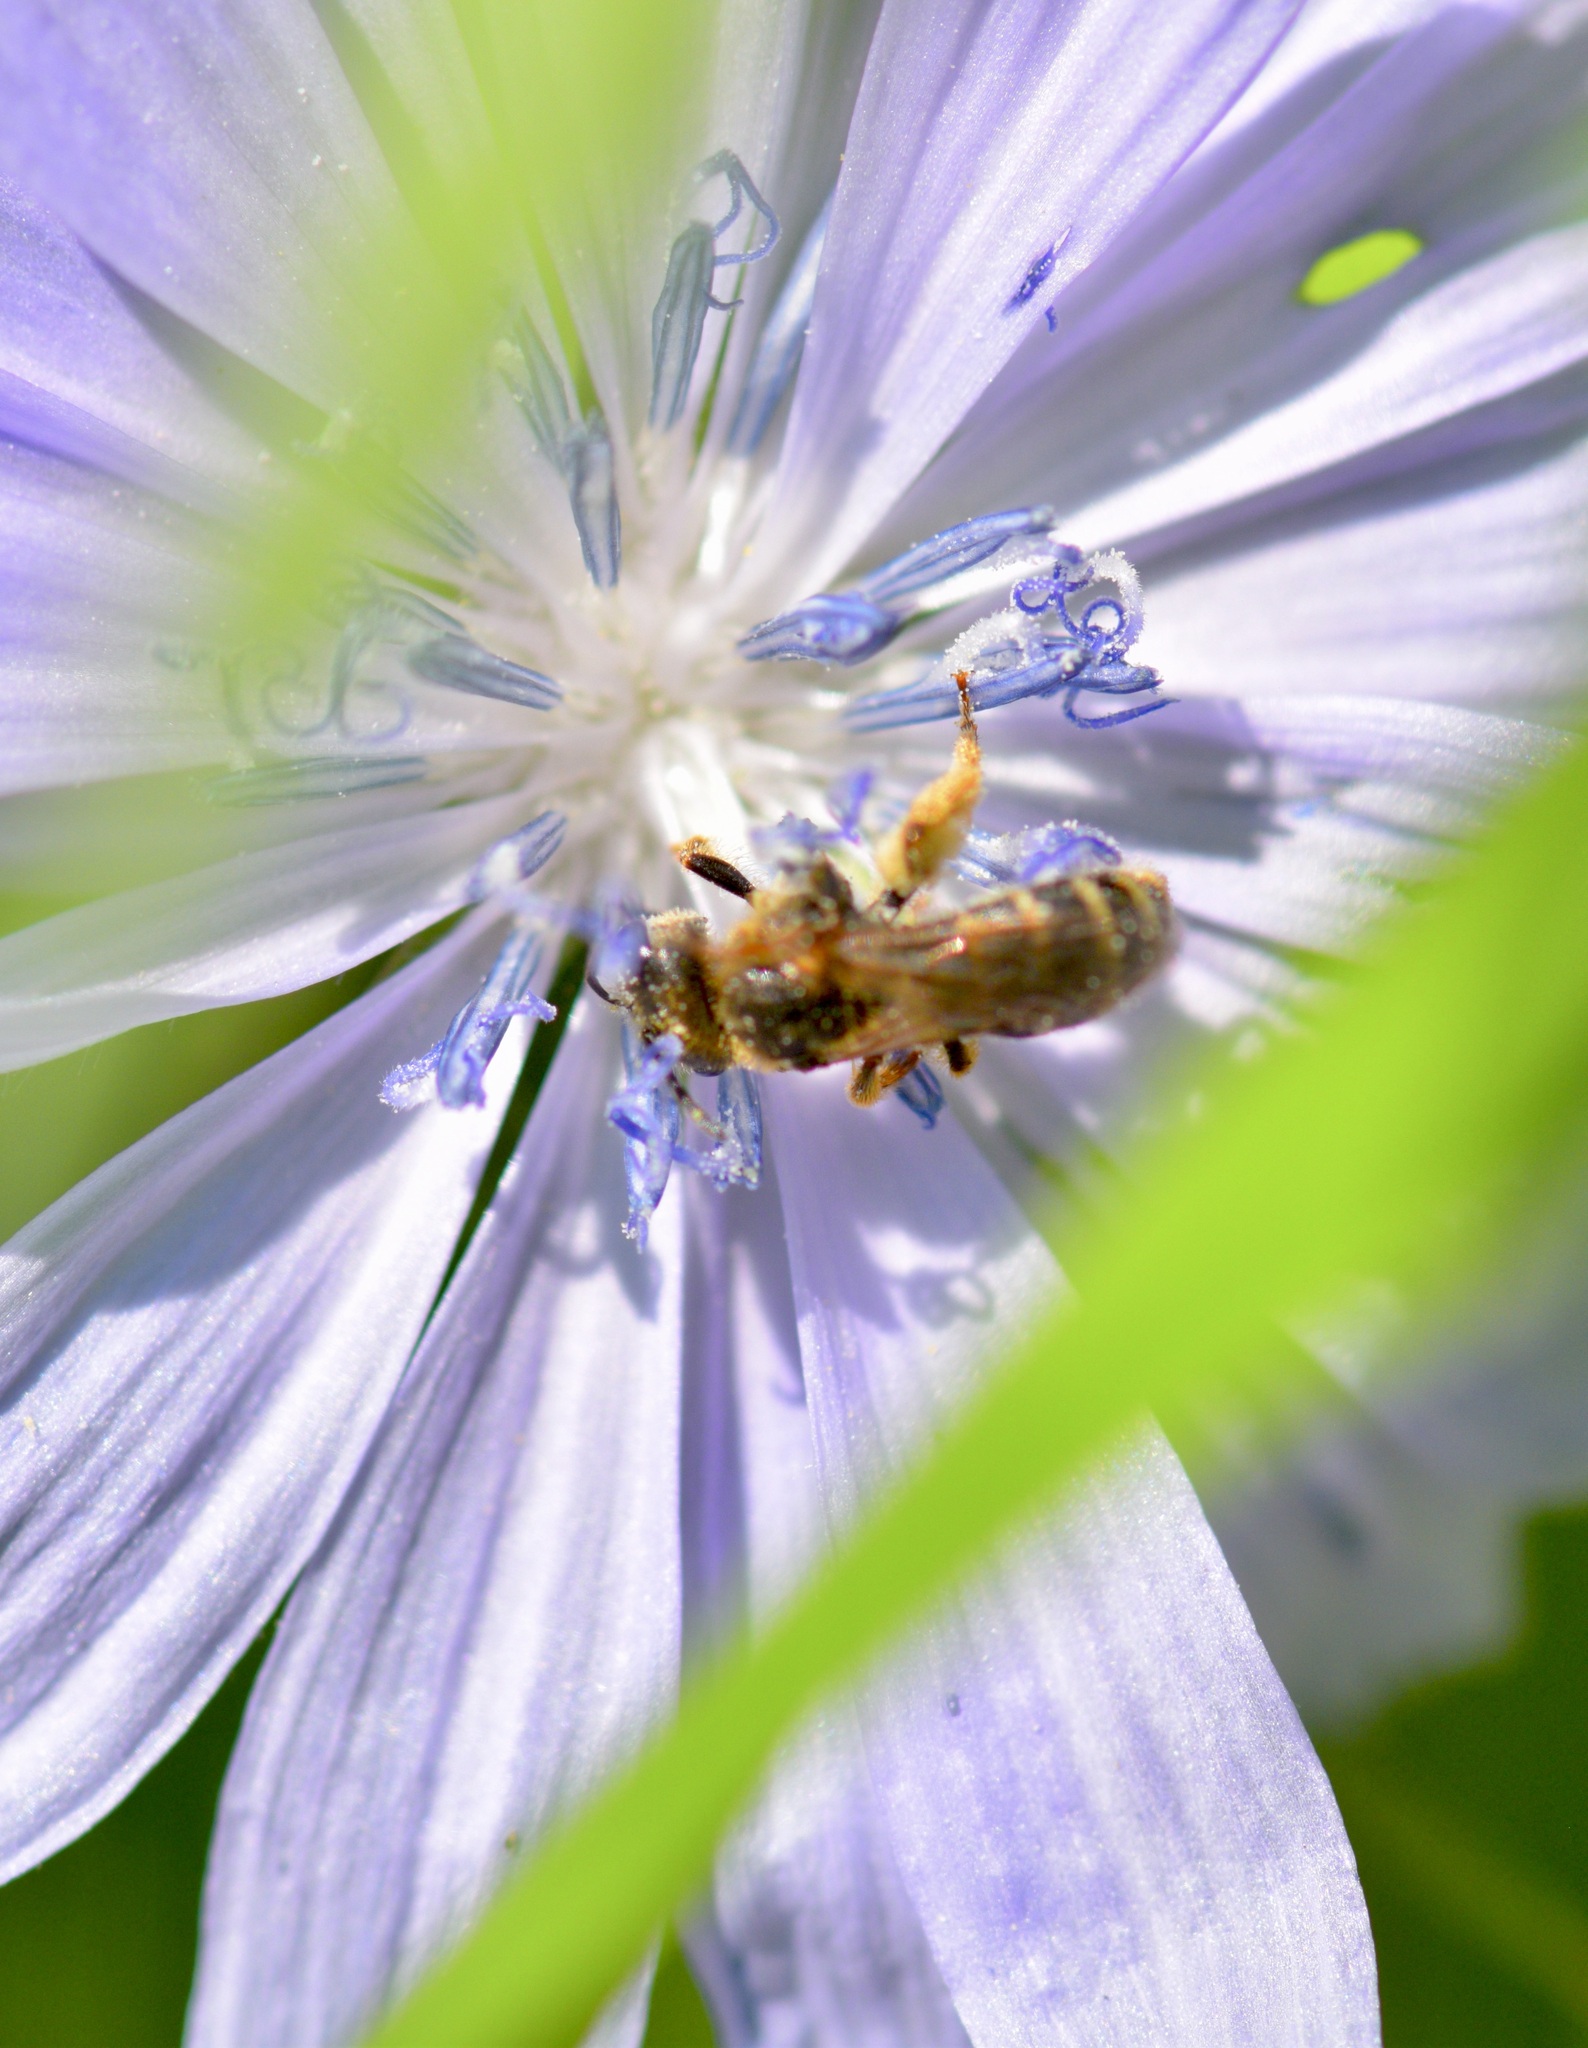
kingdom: Animalia
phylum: Arthropoda
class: Insecta
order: Hymenoptera
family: Halictidae
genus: Halictus
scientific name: Halictus ligatus
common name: Ligated furrow bee
